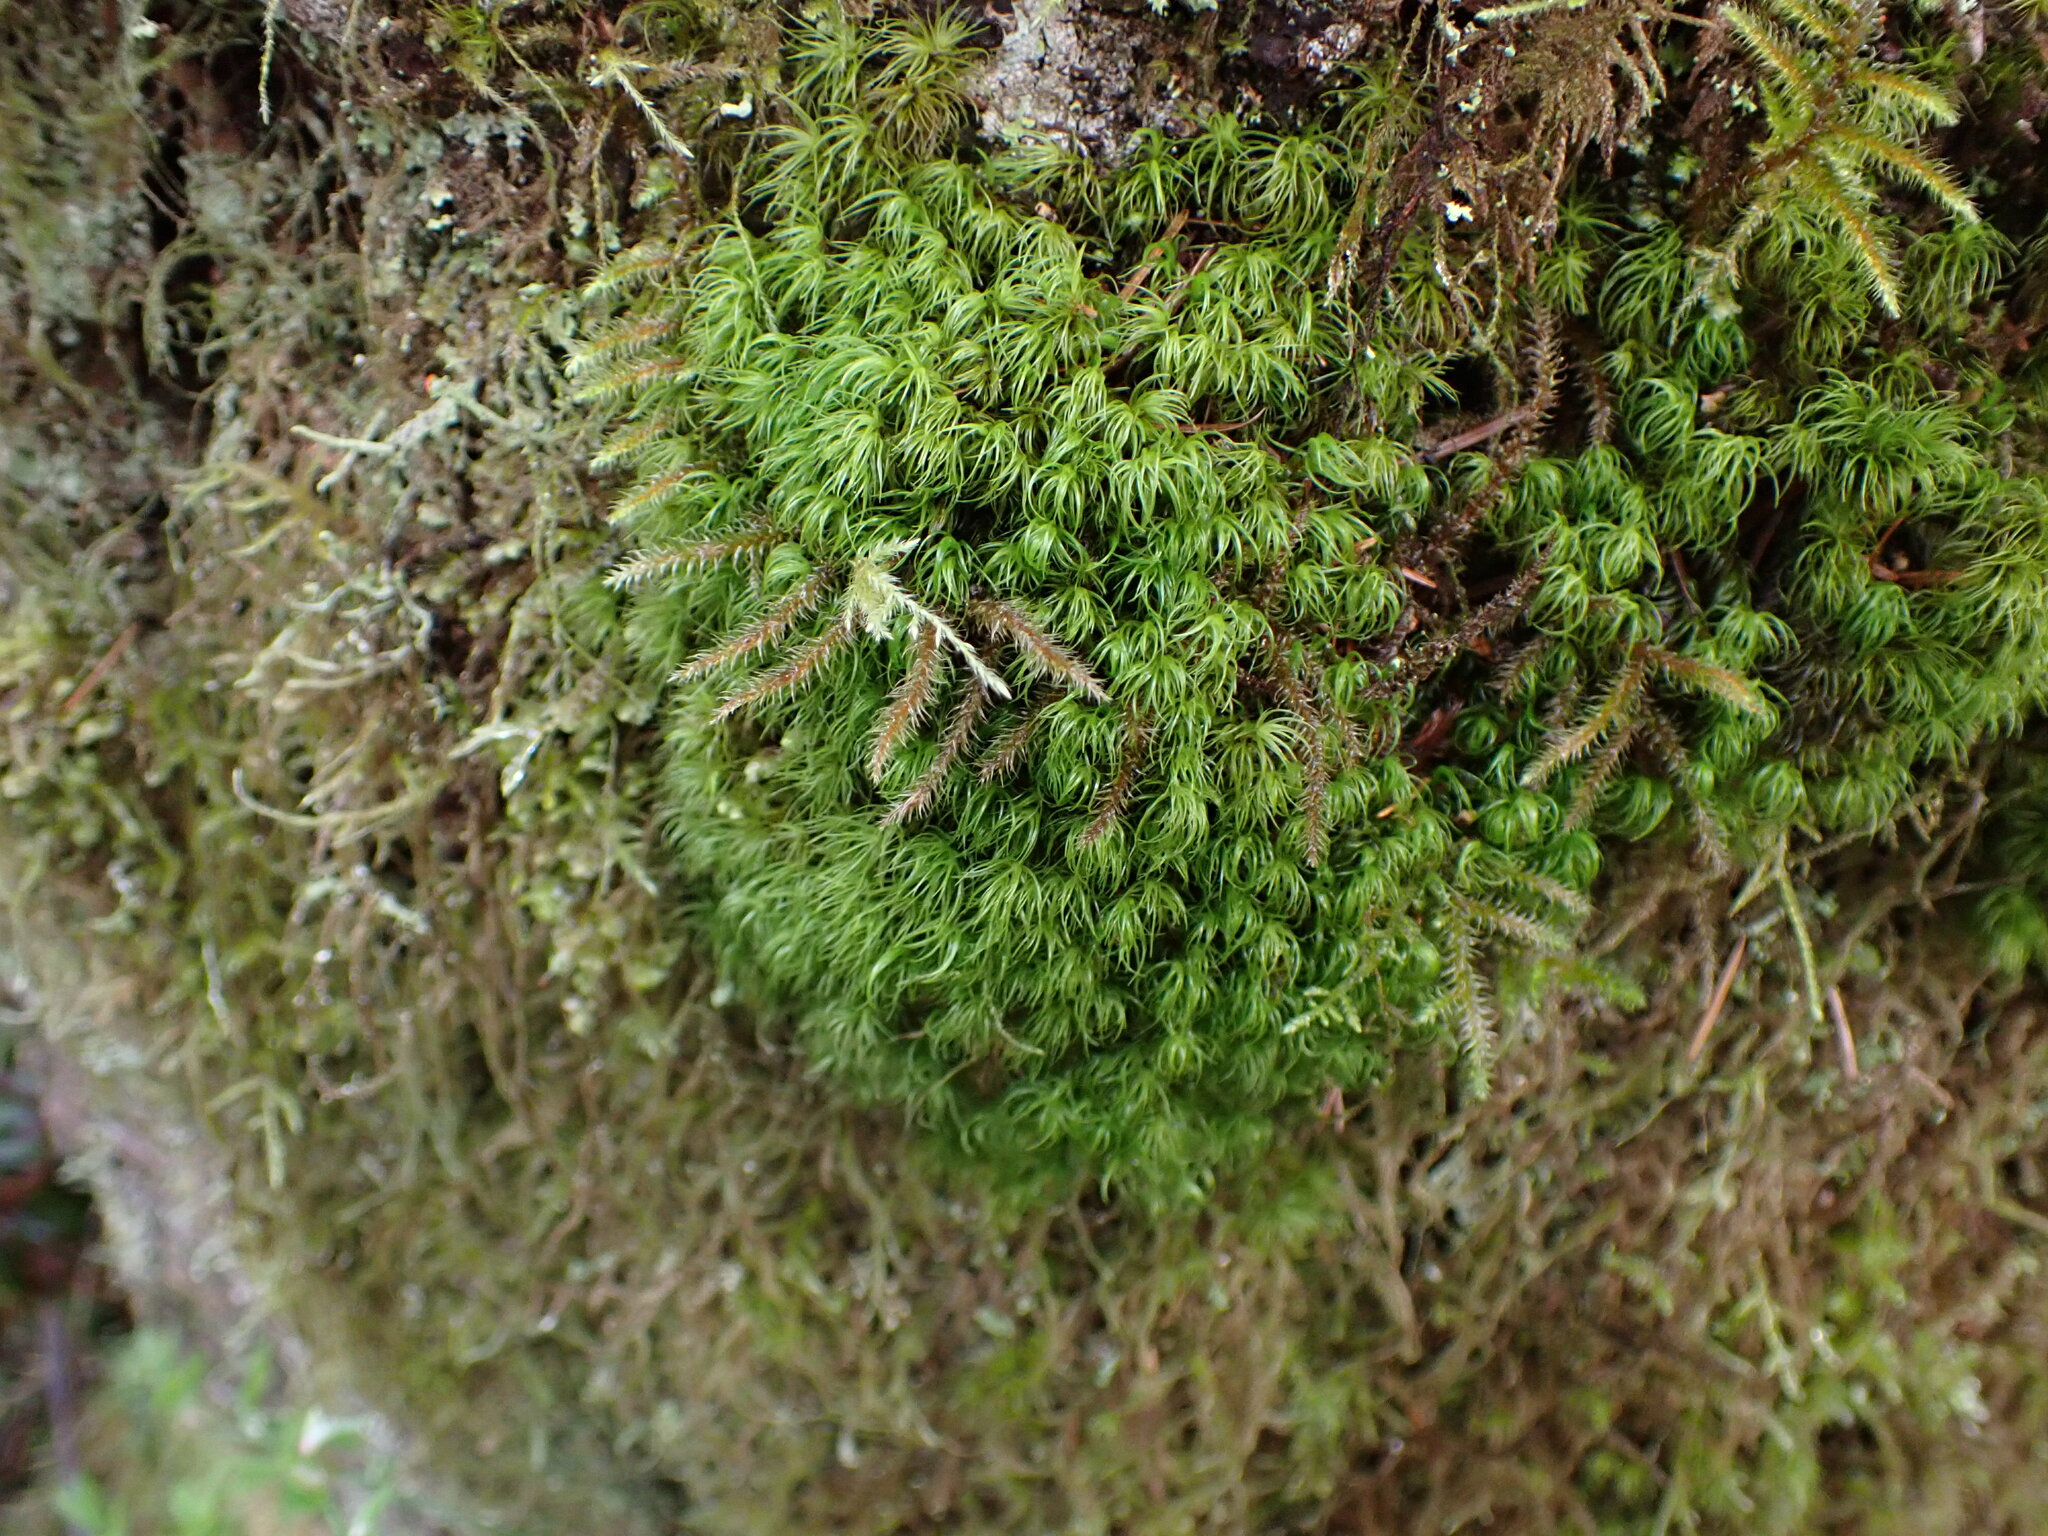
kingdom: Plantae
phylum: Bryophyta
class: Bryopsida
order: Dicranales
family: Dicranaceae
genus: Dicranum
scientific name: Dicranum fuscescens
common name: Curly heron's-bill moss
